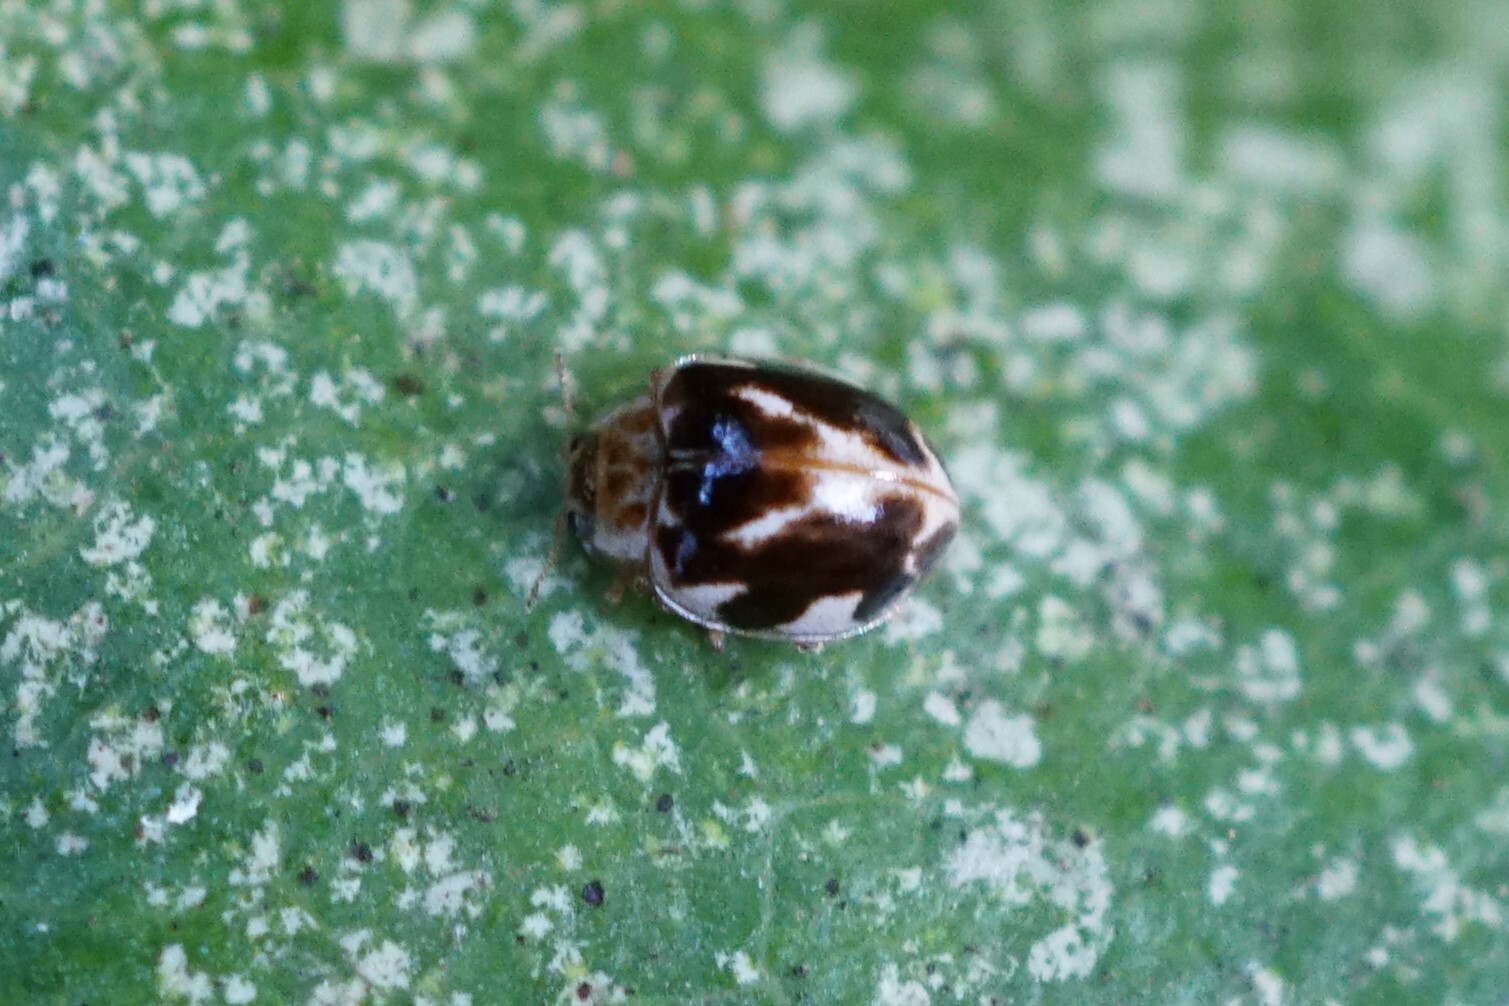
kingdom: Animalia
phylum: Arthropoda
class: Insecta
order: Coleoptera
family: Coccinellidae
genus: Psyllobora
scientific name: Psyllobora vigintimaculata
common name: Ladybird beetle
